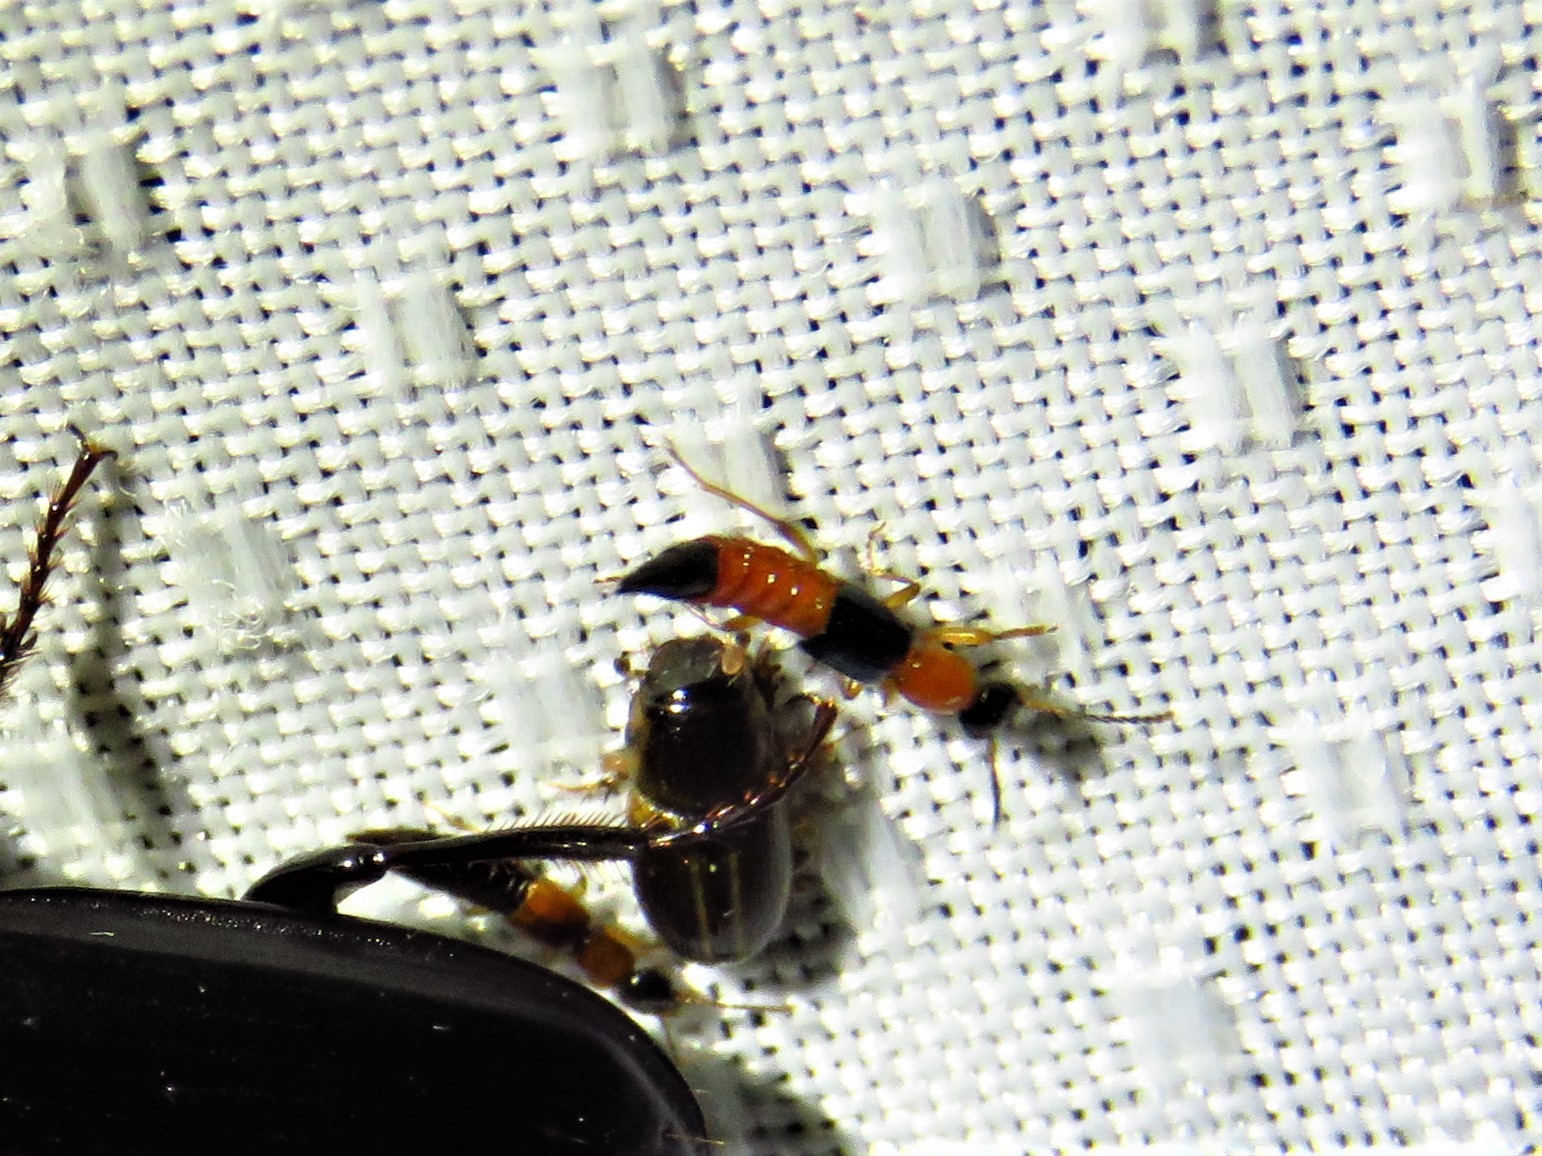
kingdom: Animalia
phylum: Arthropoda
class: Insecta
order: Coleoptera
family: Staphylinidae
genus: Paederus
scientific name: Paederus littorarius
